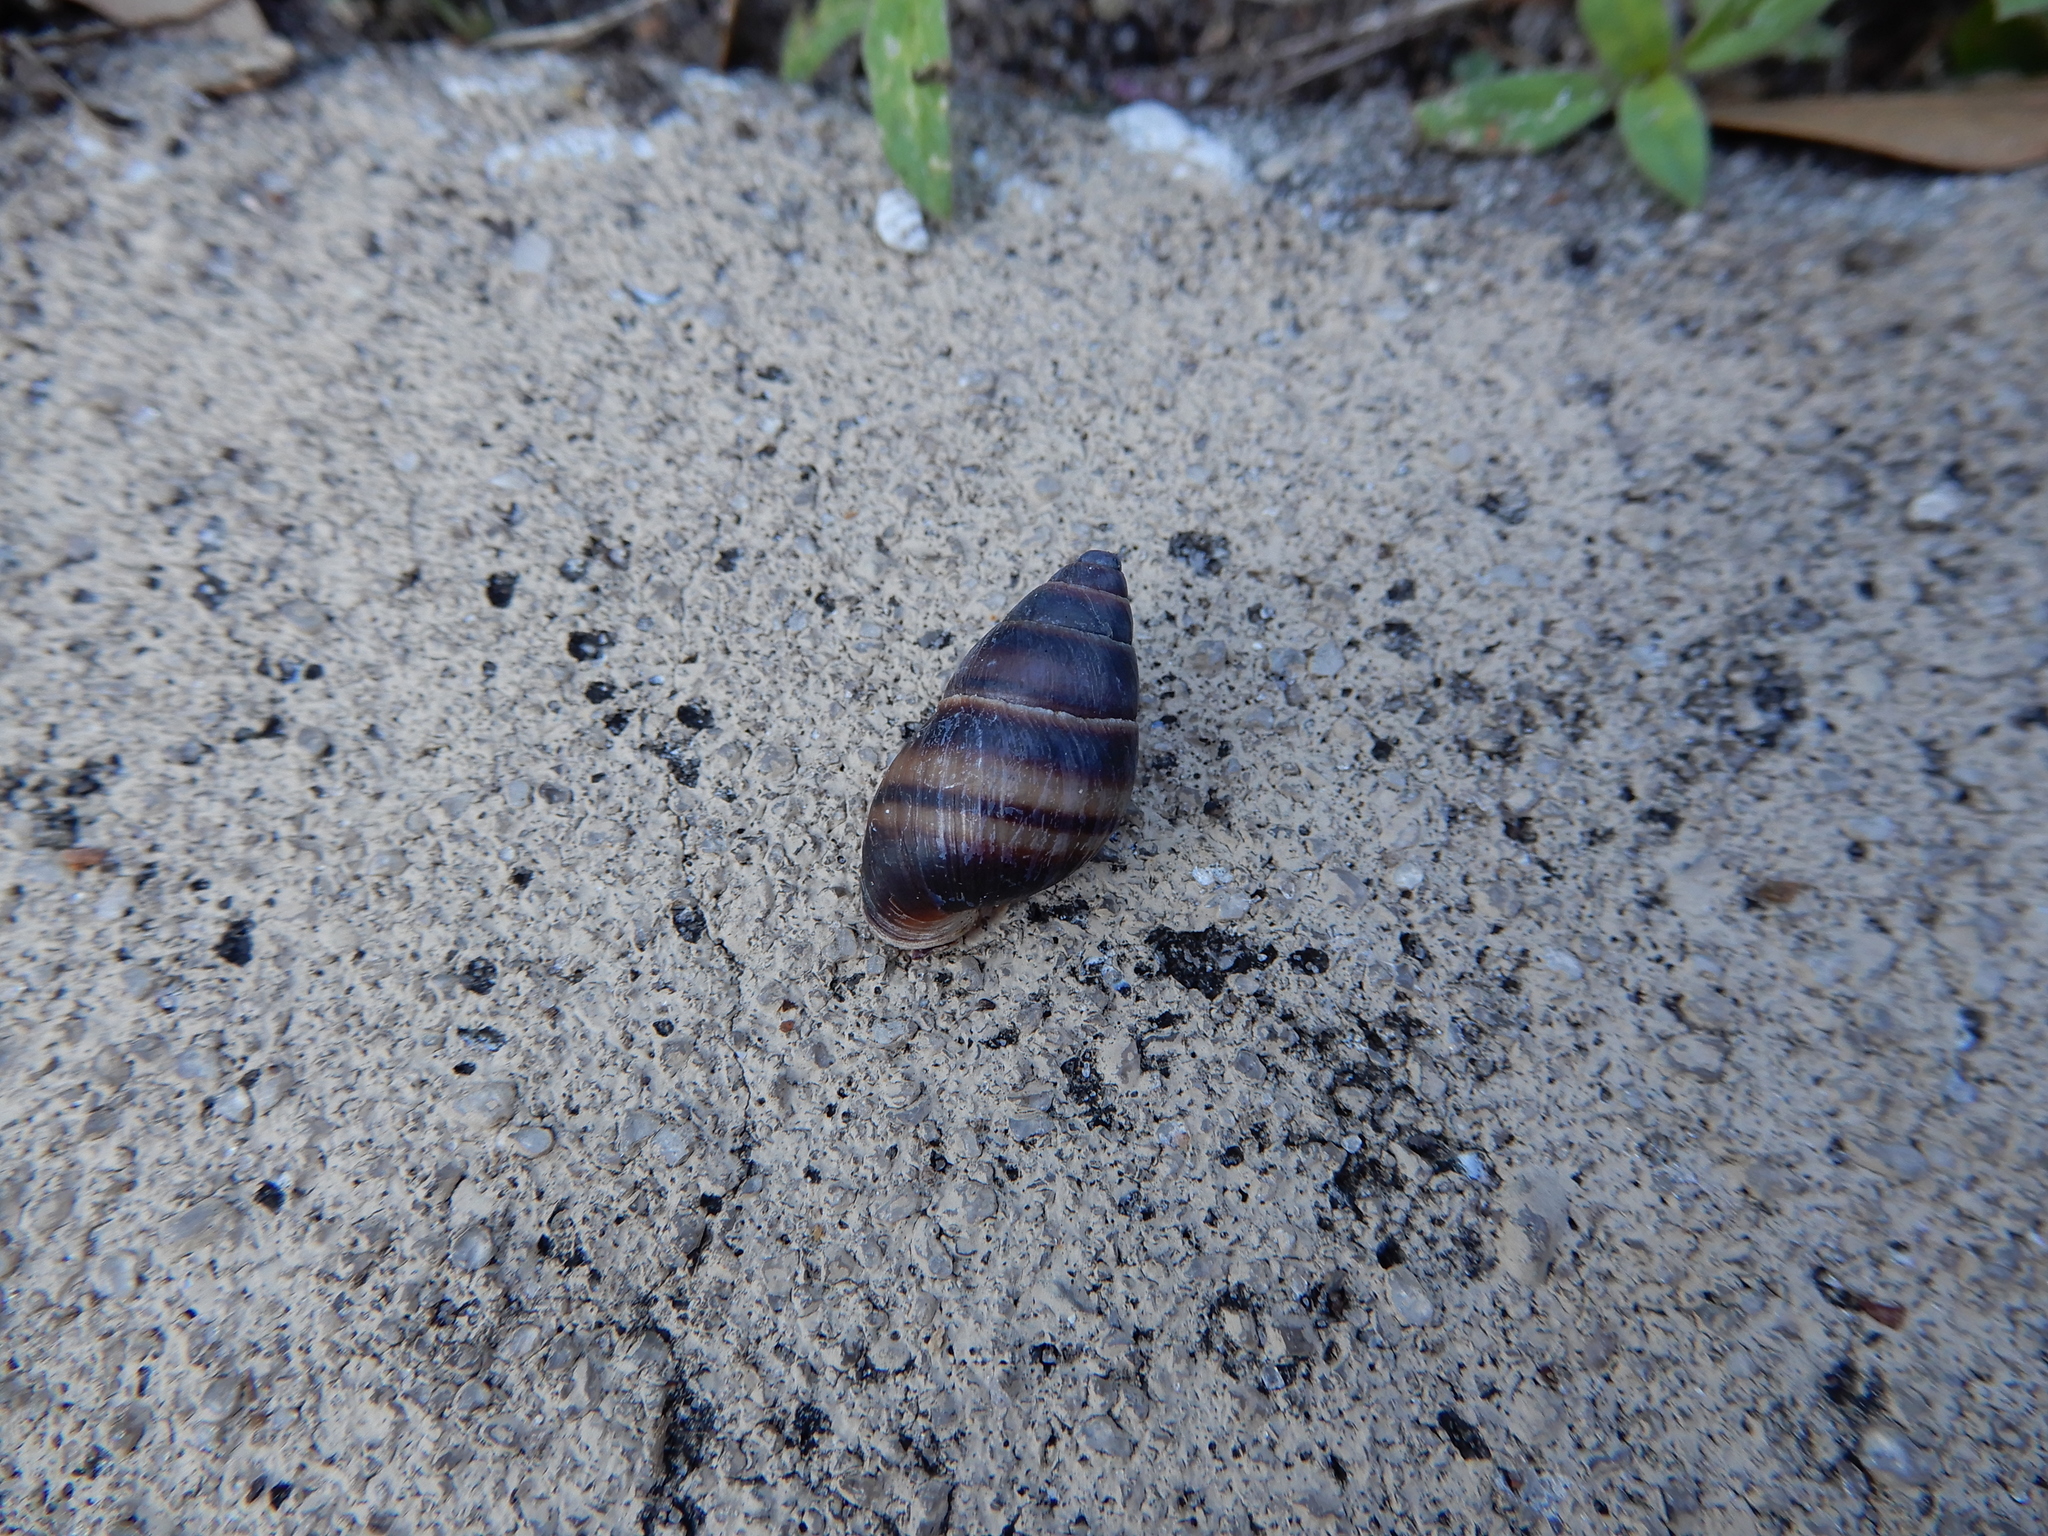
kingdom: Animalia
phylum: Mollusca
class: Gastropoda
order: Stylommatophora
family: Bulimulidae
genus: Bulimulus
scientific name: Bulimulus guadalupensis
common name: West indian bulimulus
